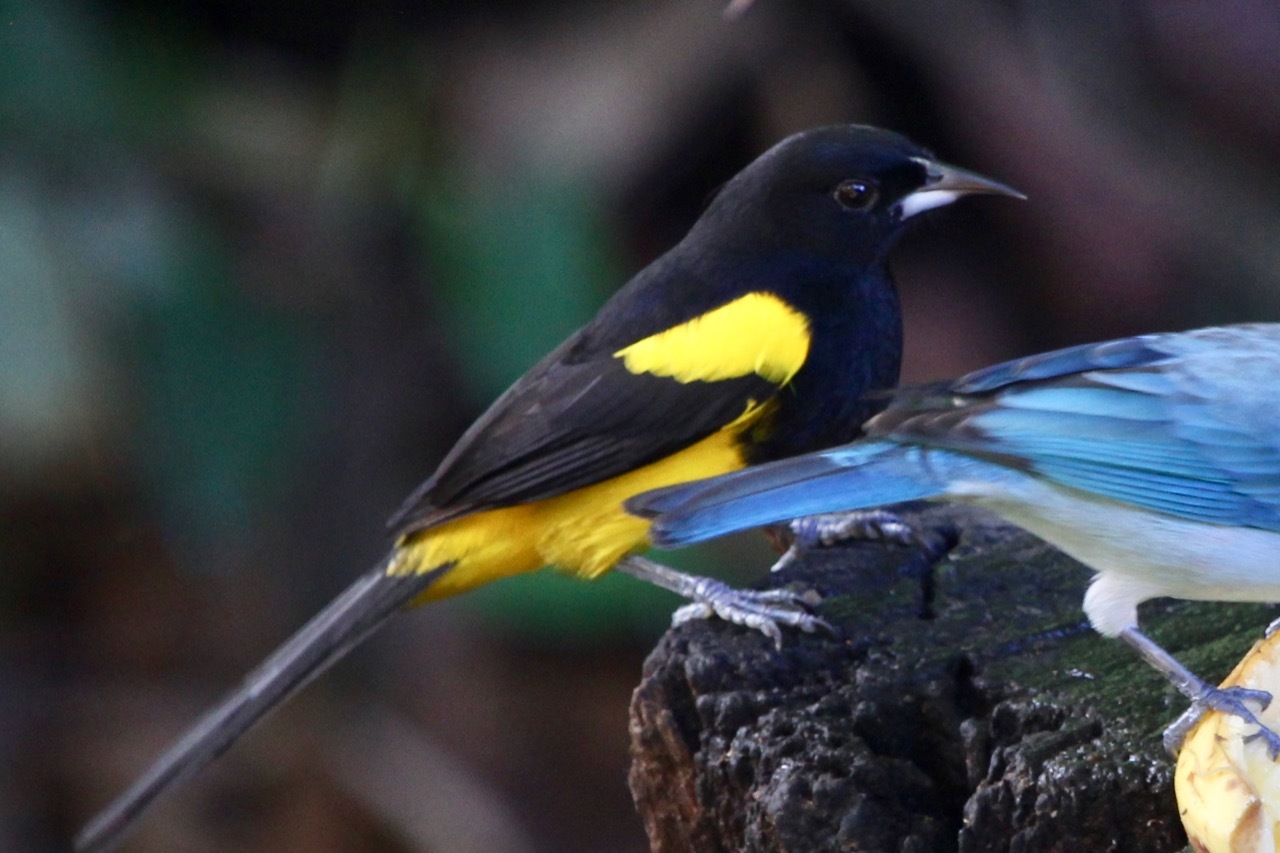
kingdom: Animalia
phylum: Chordata
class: Aves
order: Passeriformes
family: Icteridae
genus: Icterus
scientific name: Icterus prosthemelas
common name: Black-cowled oriole
